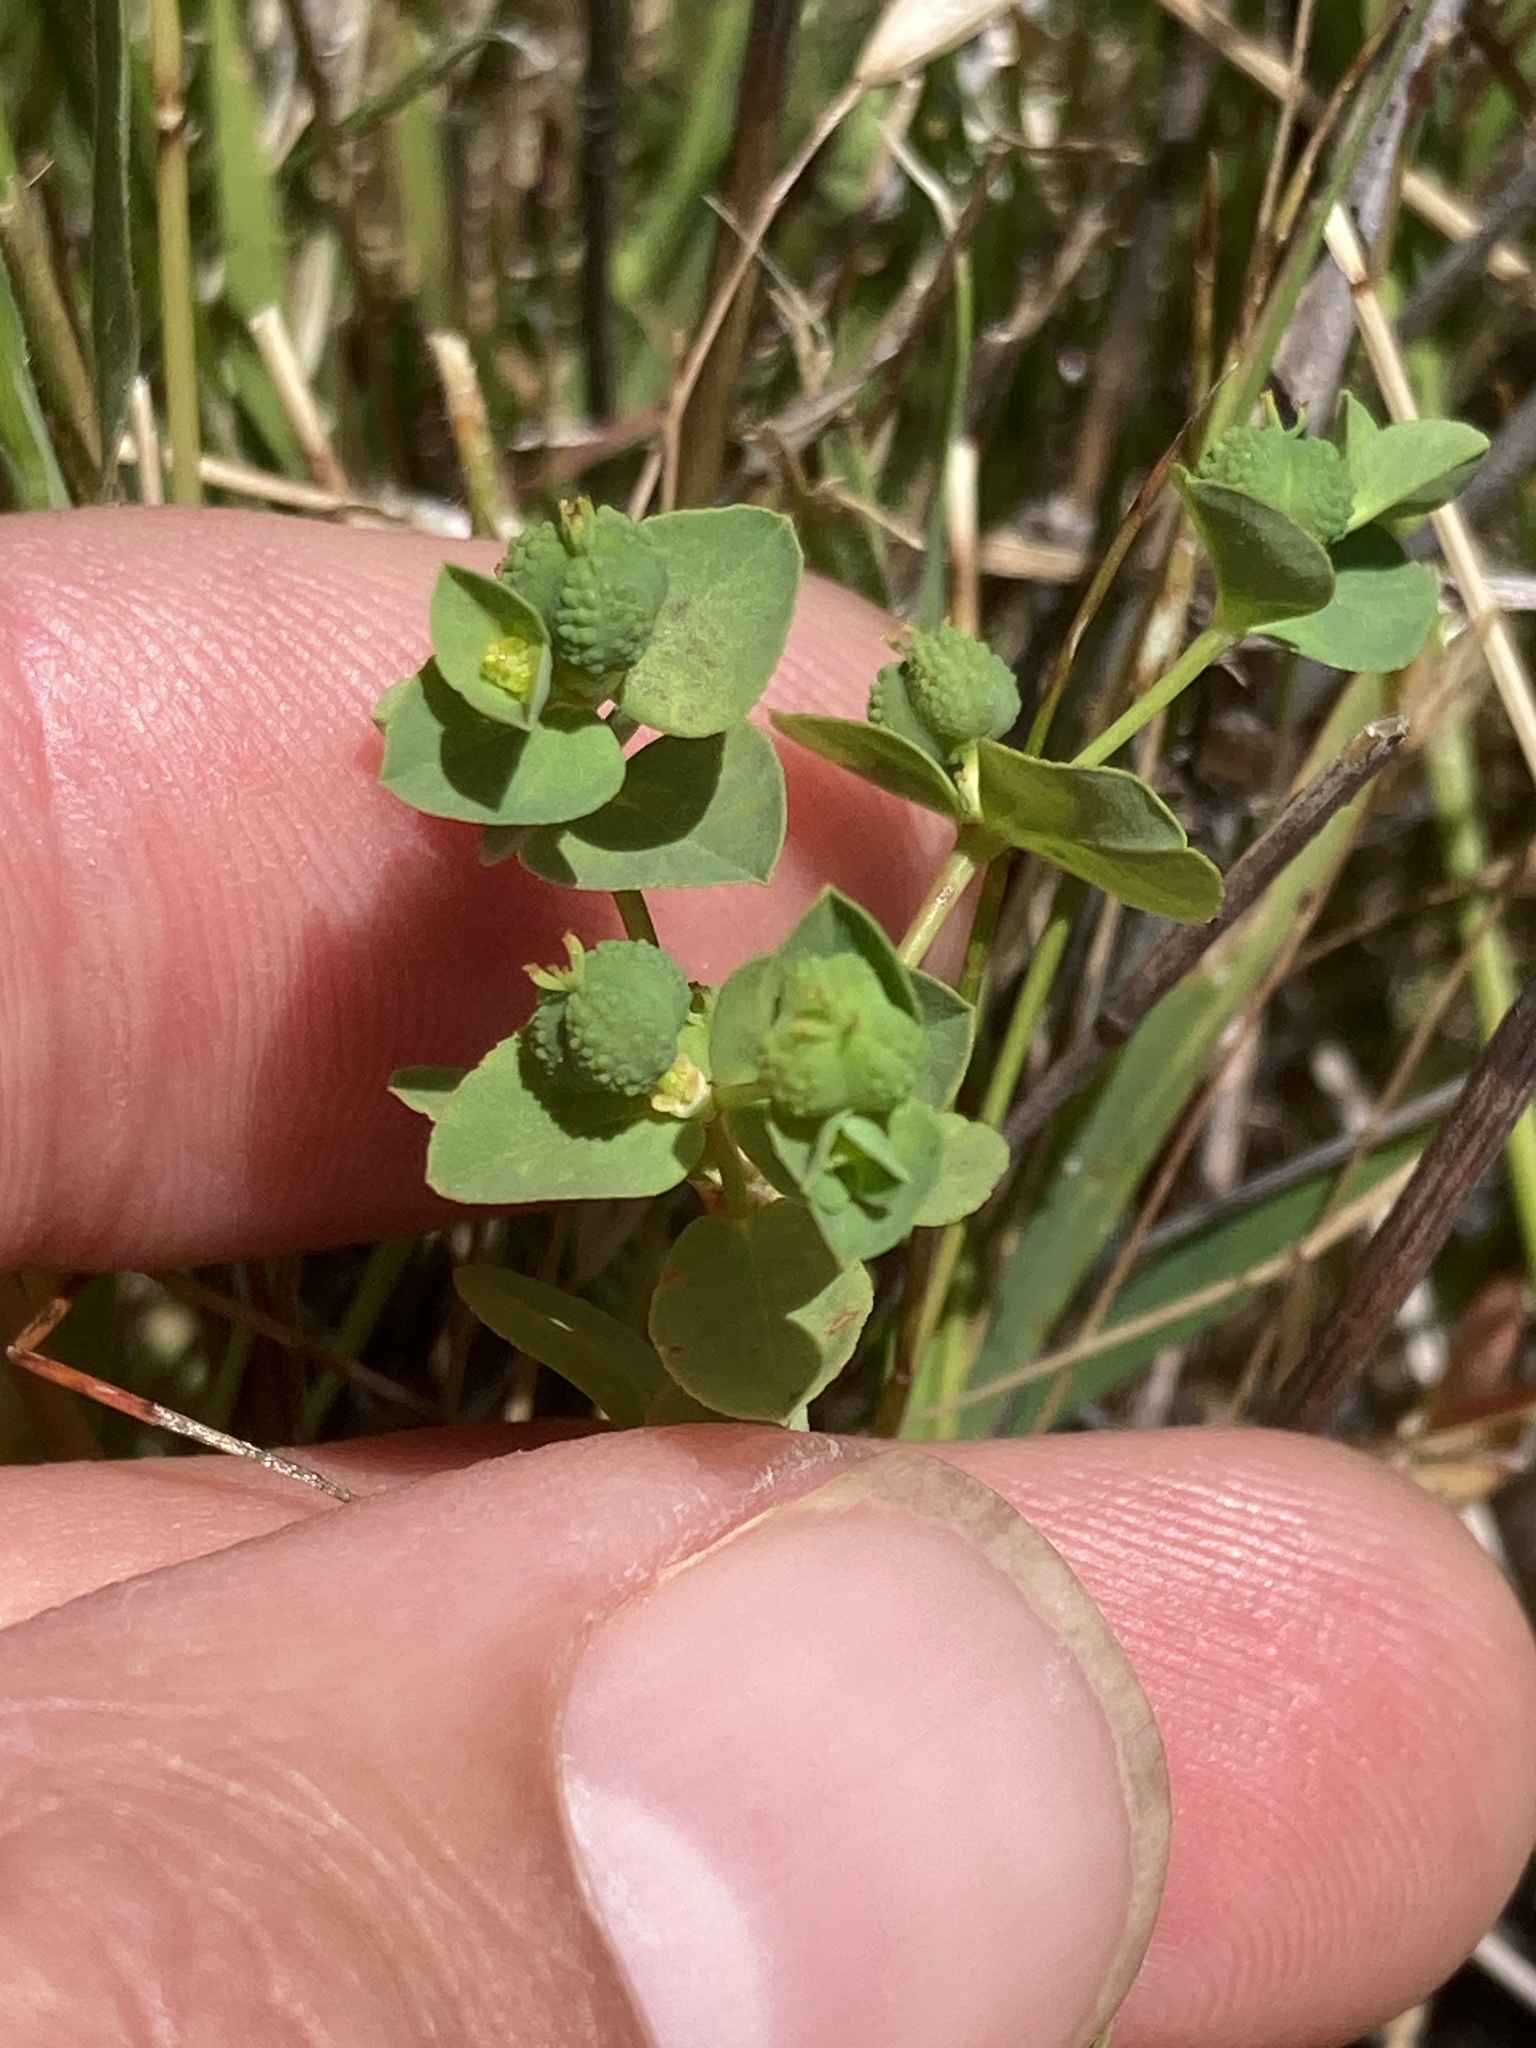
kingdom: Plantae
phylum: Tracheophyta
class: Magnoliopsida
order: Malpighiales
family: Euphorbiaceae
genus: Euphorbia
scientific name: Euphorbia spathulata
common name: Blunt spurge
